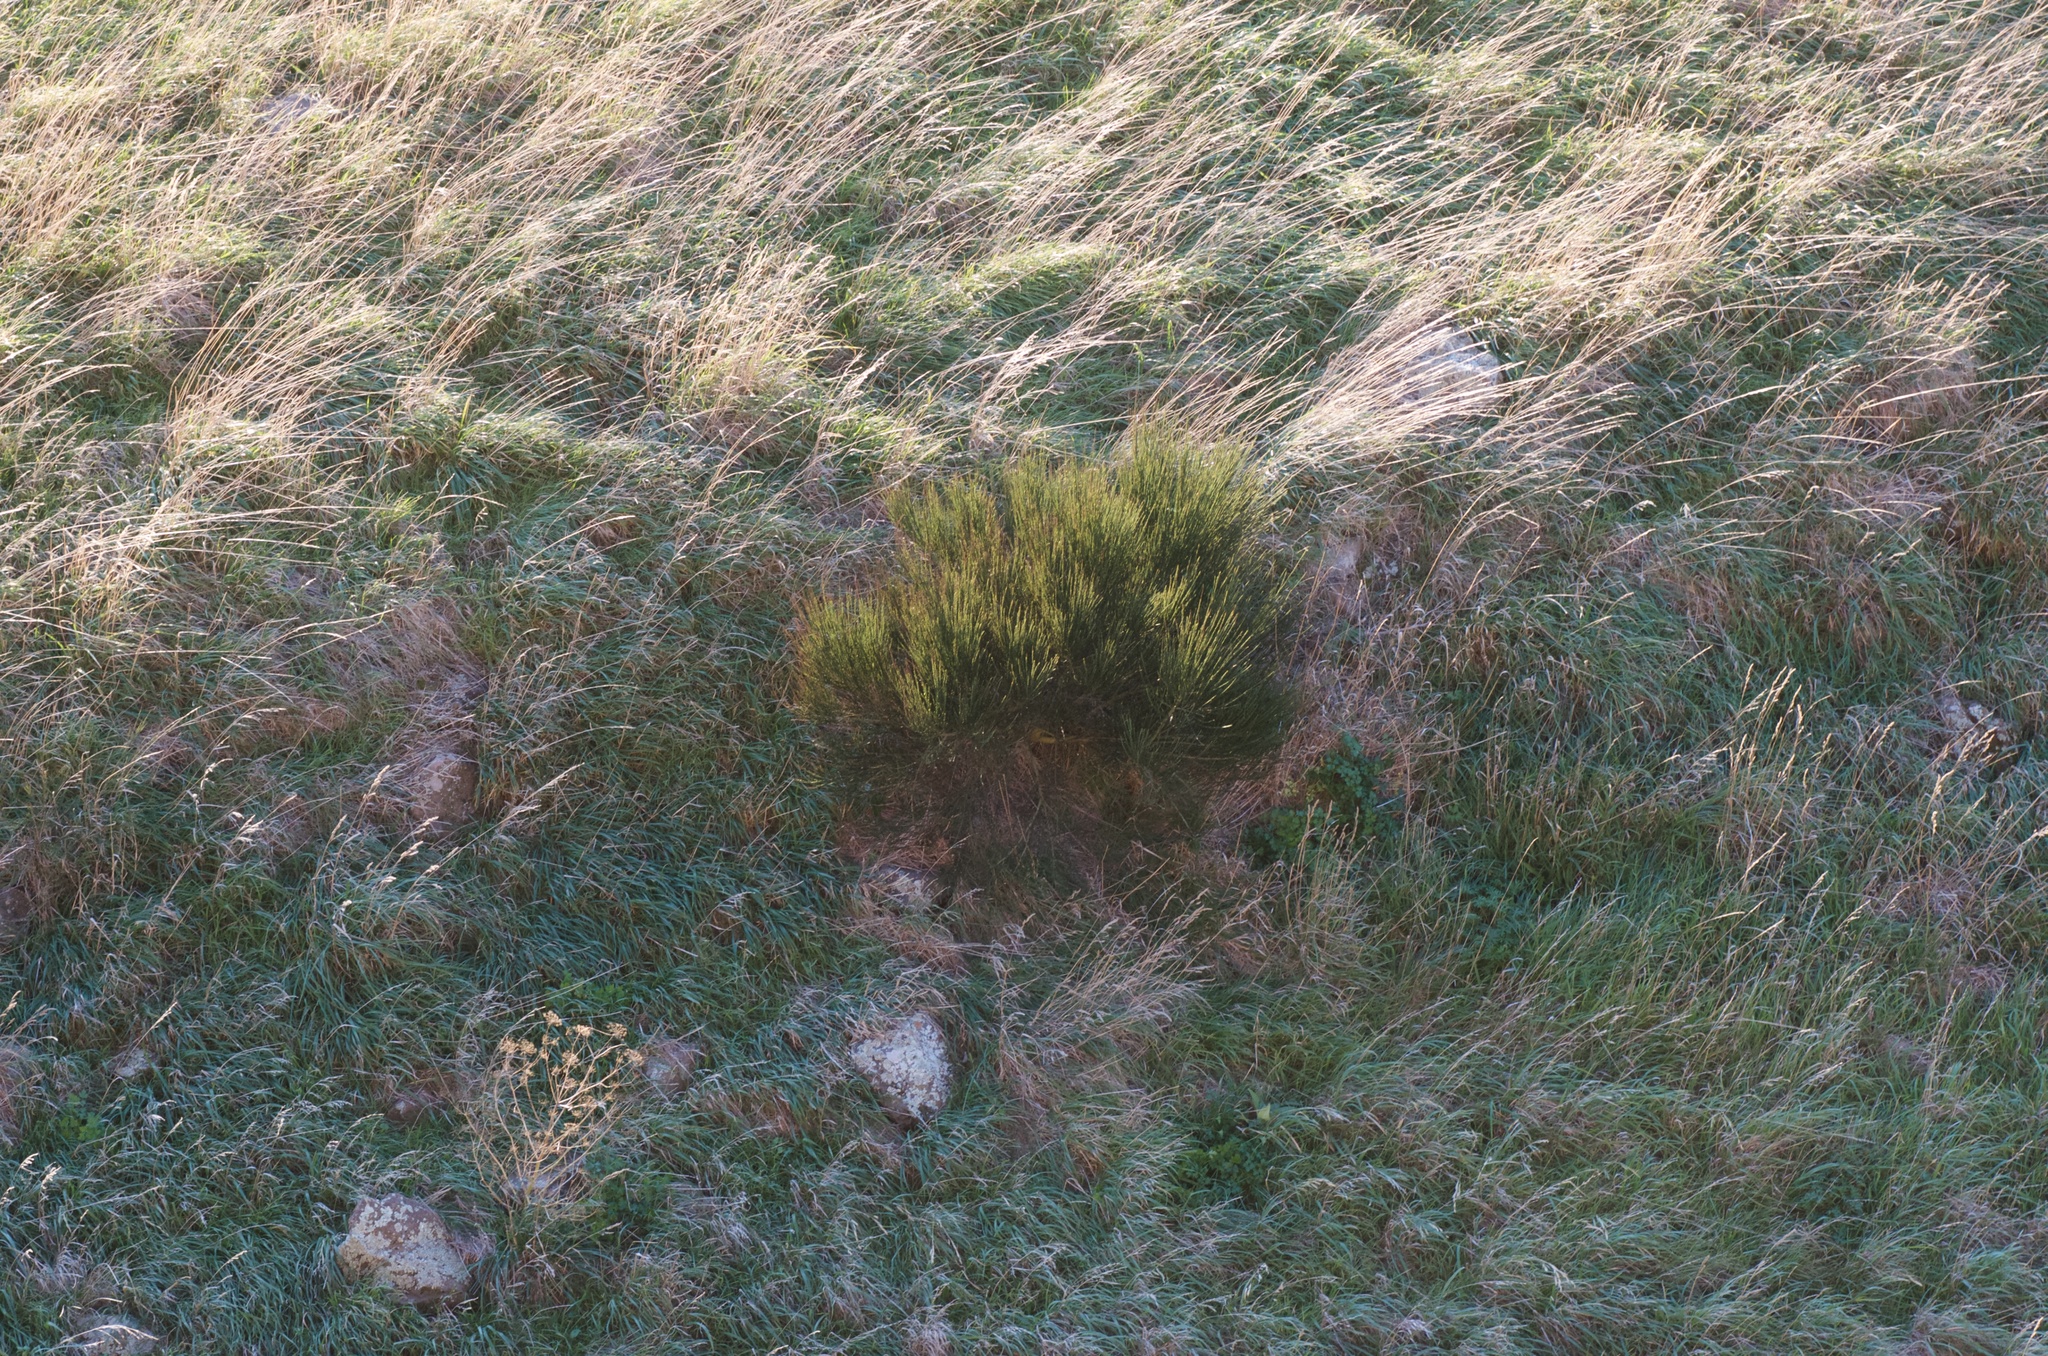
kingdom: Plantae
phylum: Tracheophyta
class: Magnoliopsida
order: Fabales
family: Fabaceae
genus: Cytisus
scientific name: Cytisus scoparius
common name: Scotch broom
